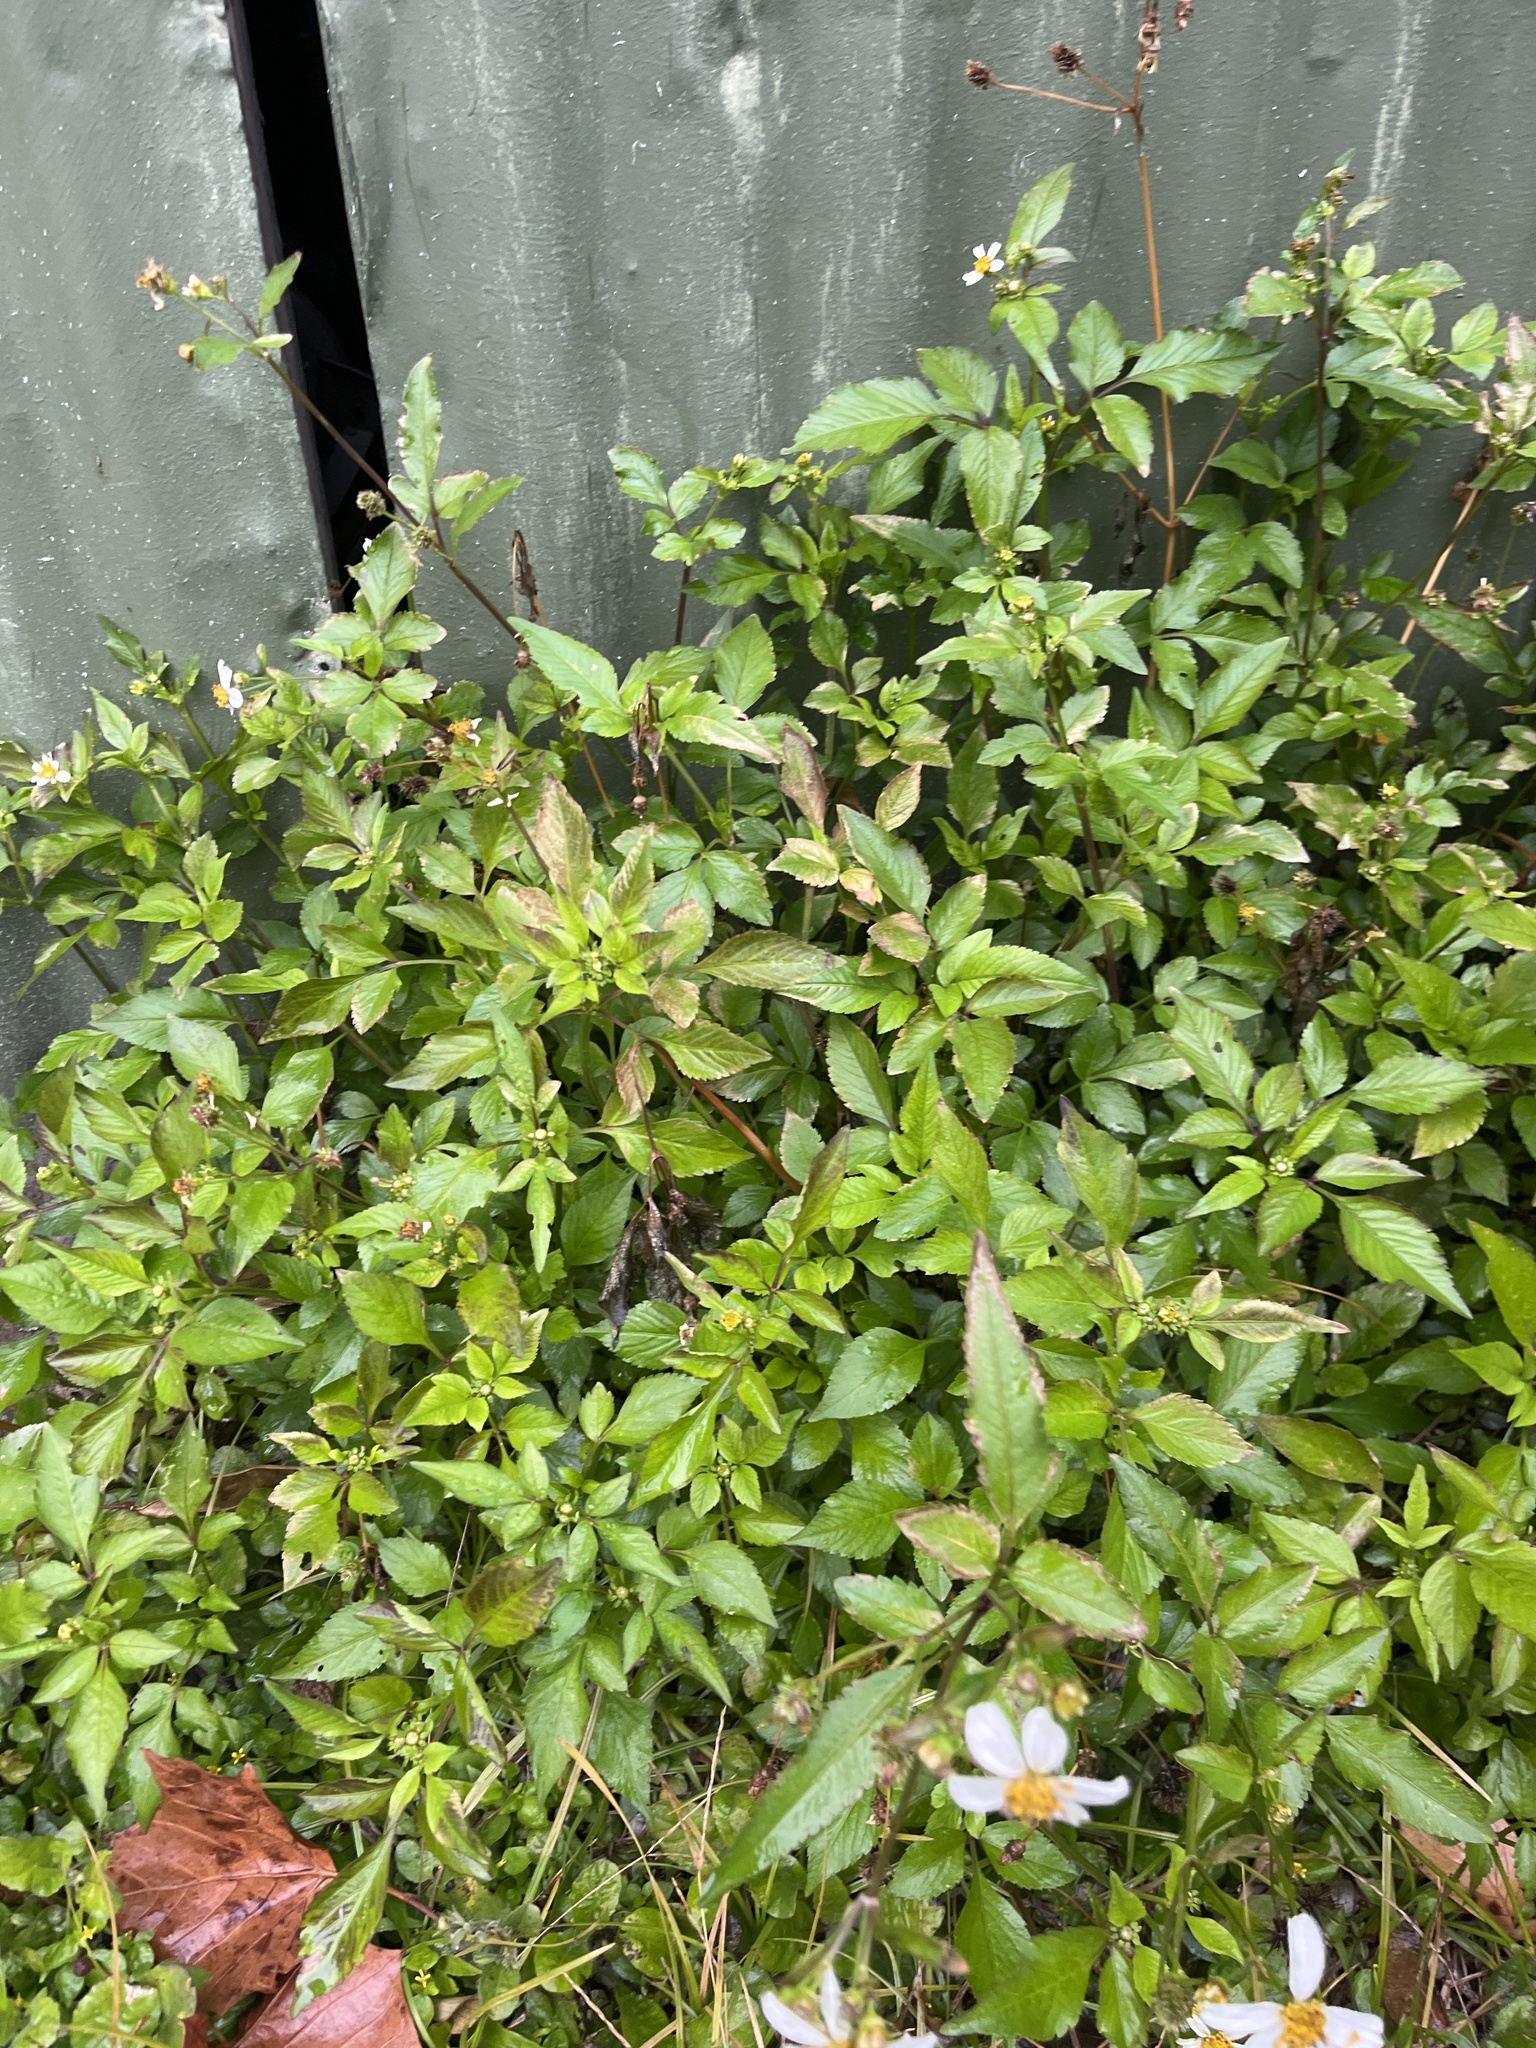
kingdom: Plantae
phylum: Tracheophyta
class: Magnoliopsida
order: Asterales
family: Asteraceae
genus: Bidens
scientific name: Bidens alba
